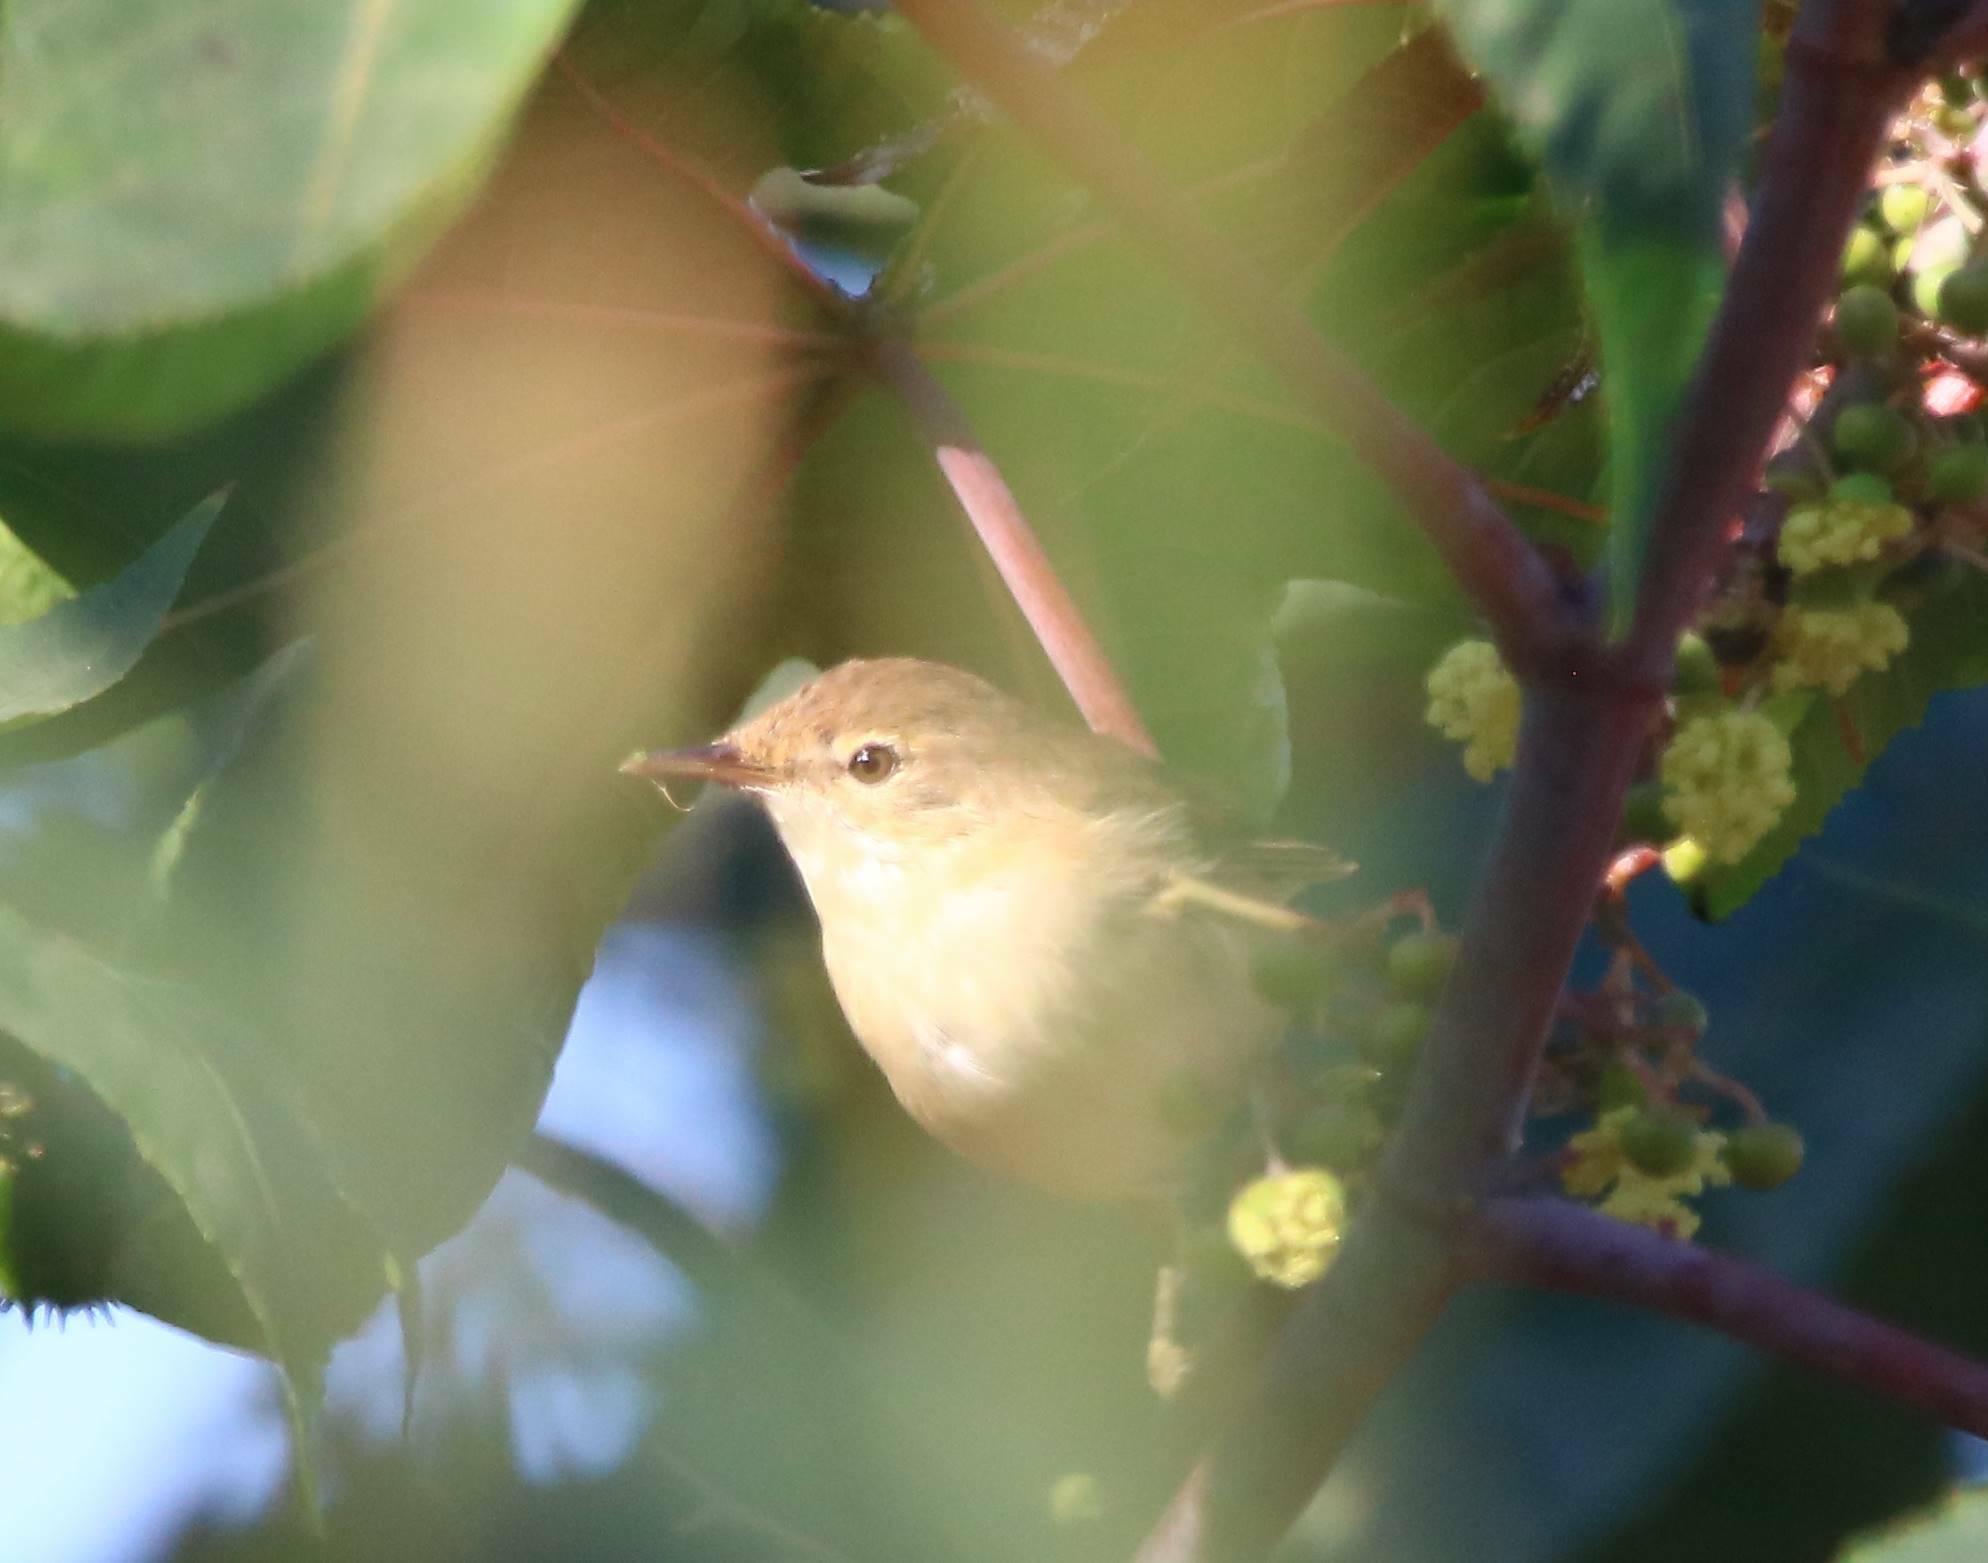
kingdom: Animalia
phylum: Chordata
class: Aves
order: Passeriformes
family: Acrocephalidae
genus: Acrocephalus
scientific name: Acrocephalus scirpaceus
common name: Eurasian reed warbler
